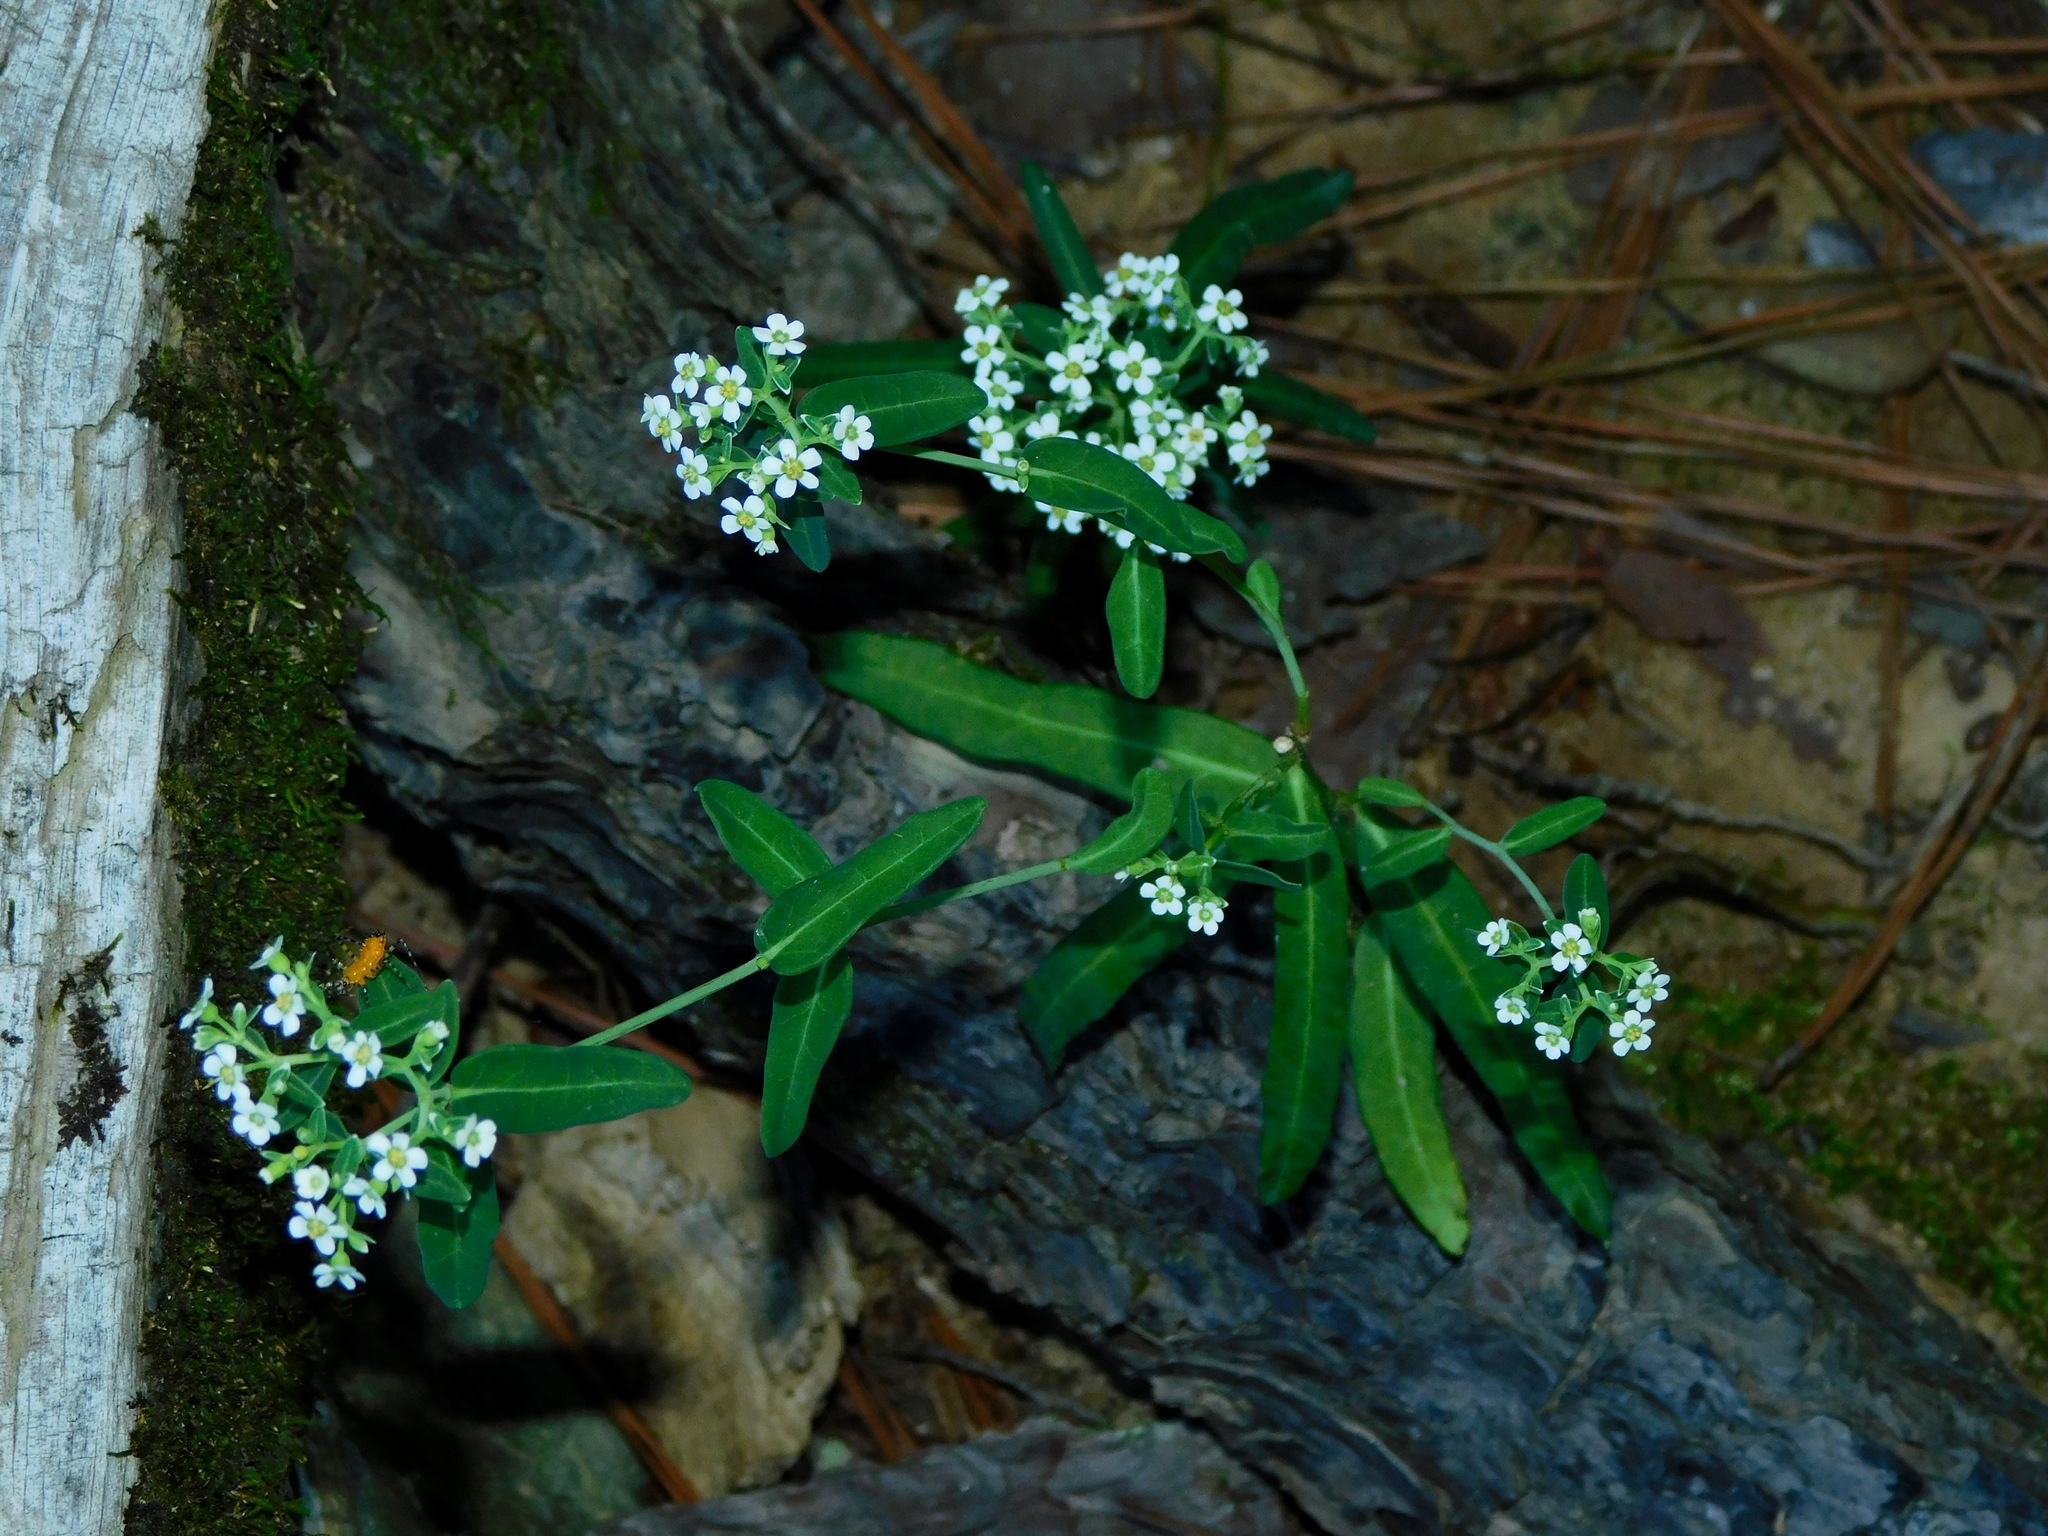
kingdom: Plantae
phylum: Tracheophyta
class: Magnoliopsida
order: Malpighiales
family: Euphorbiaceae
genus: Euphorbia
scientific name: Euphorbia corollata
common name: Flowering spurge
